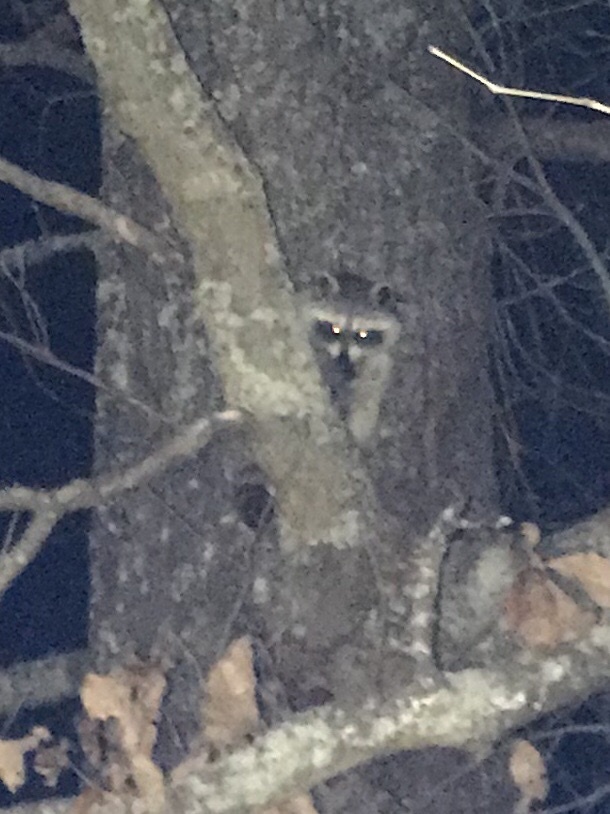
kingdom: Animalia
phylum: Chordata
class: Mammalia
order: Carnivora
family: Procyonidae
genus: Procyon
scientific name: Procyon lotor
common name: Raccoon
